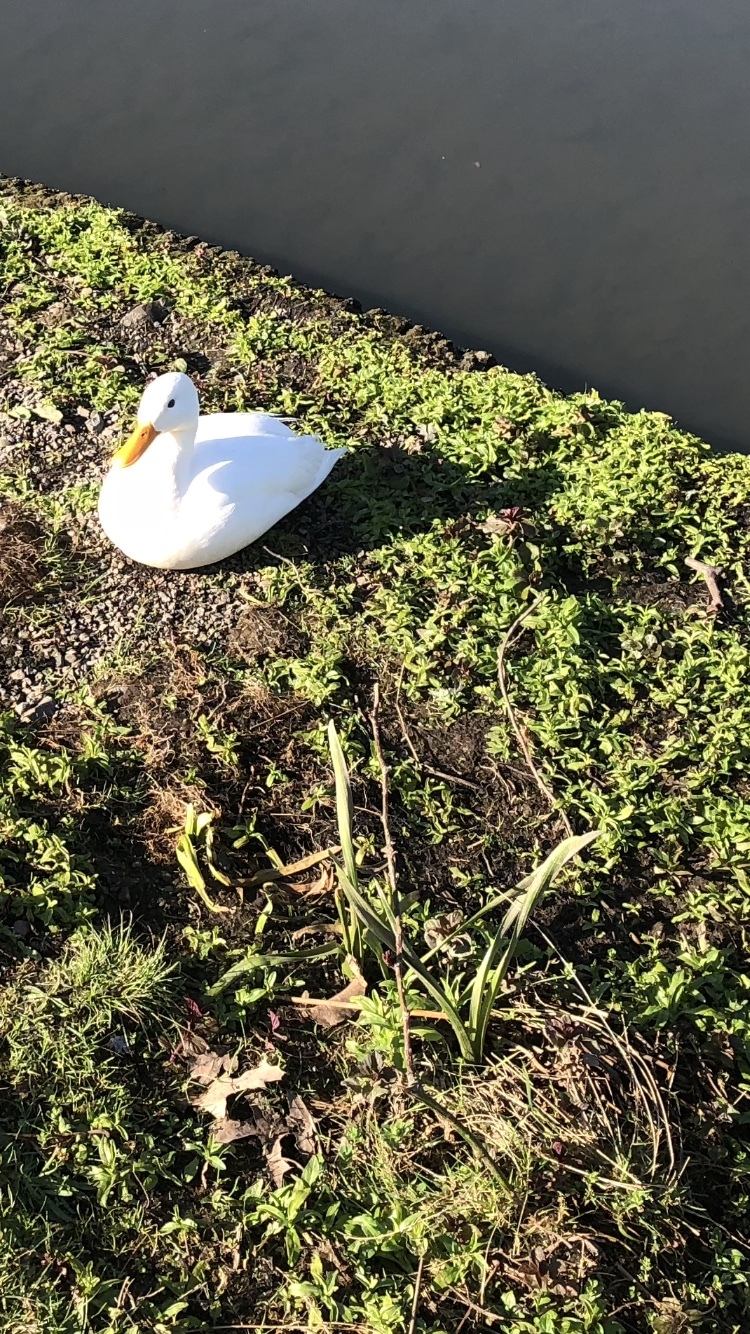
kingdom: Animalia
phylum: Chordata
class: Aves
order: Anseriformes
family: Anatidae
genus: Anas
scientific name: Anas platyrhynchos
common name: Mallard
